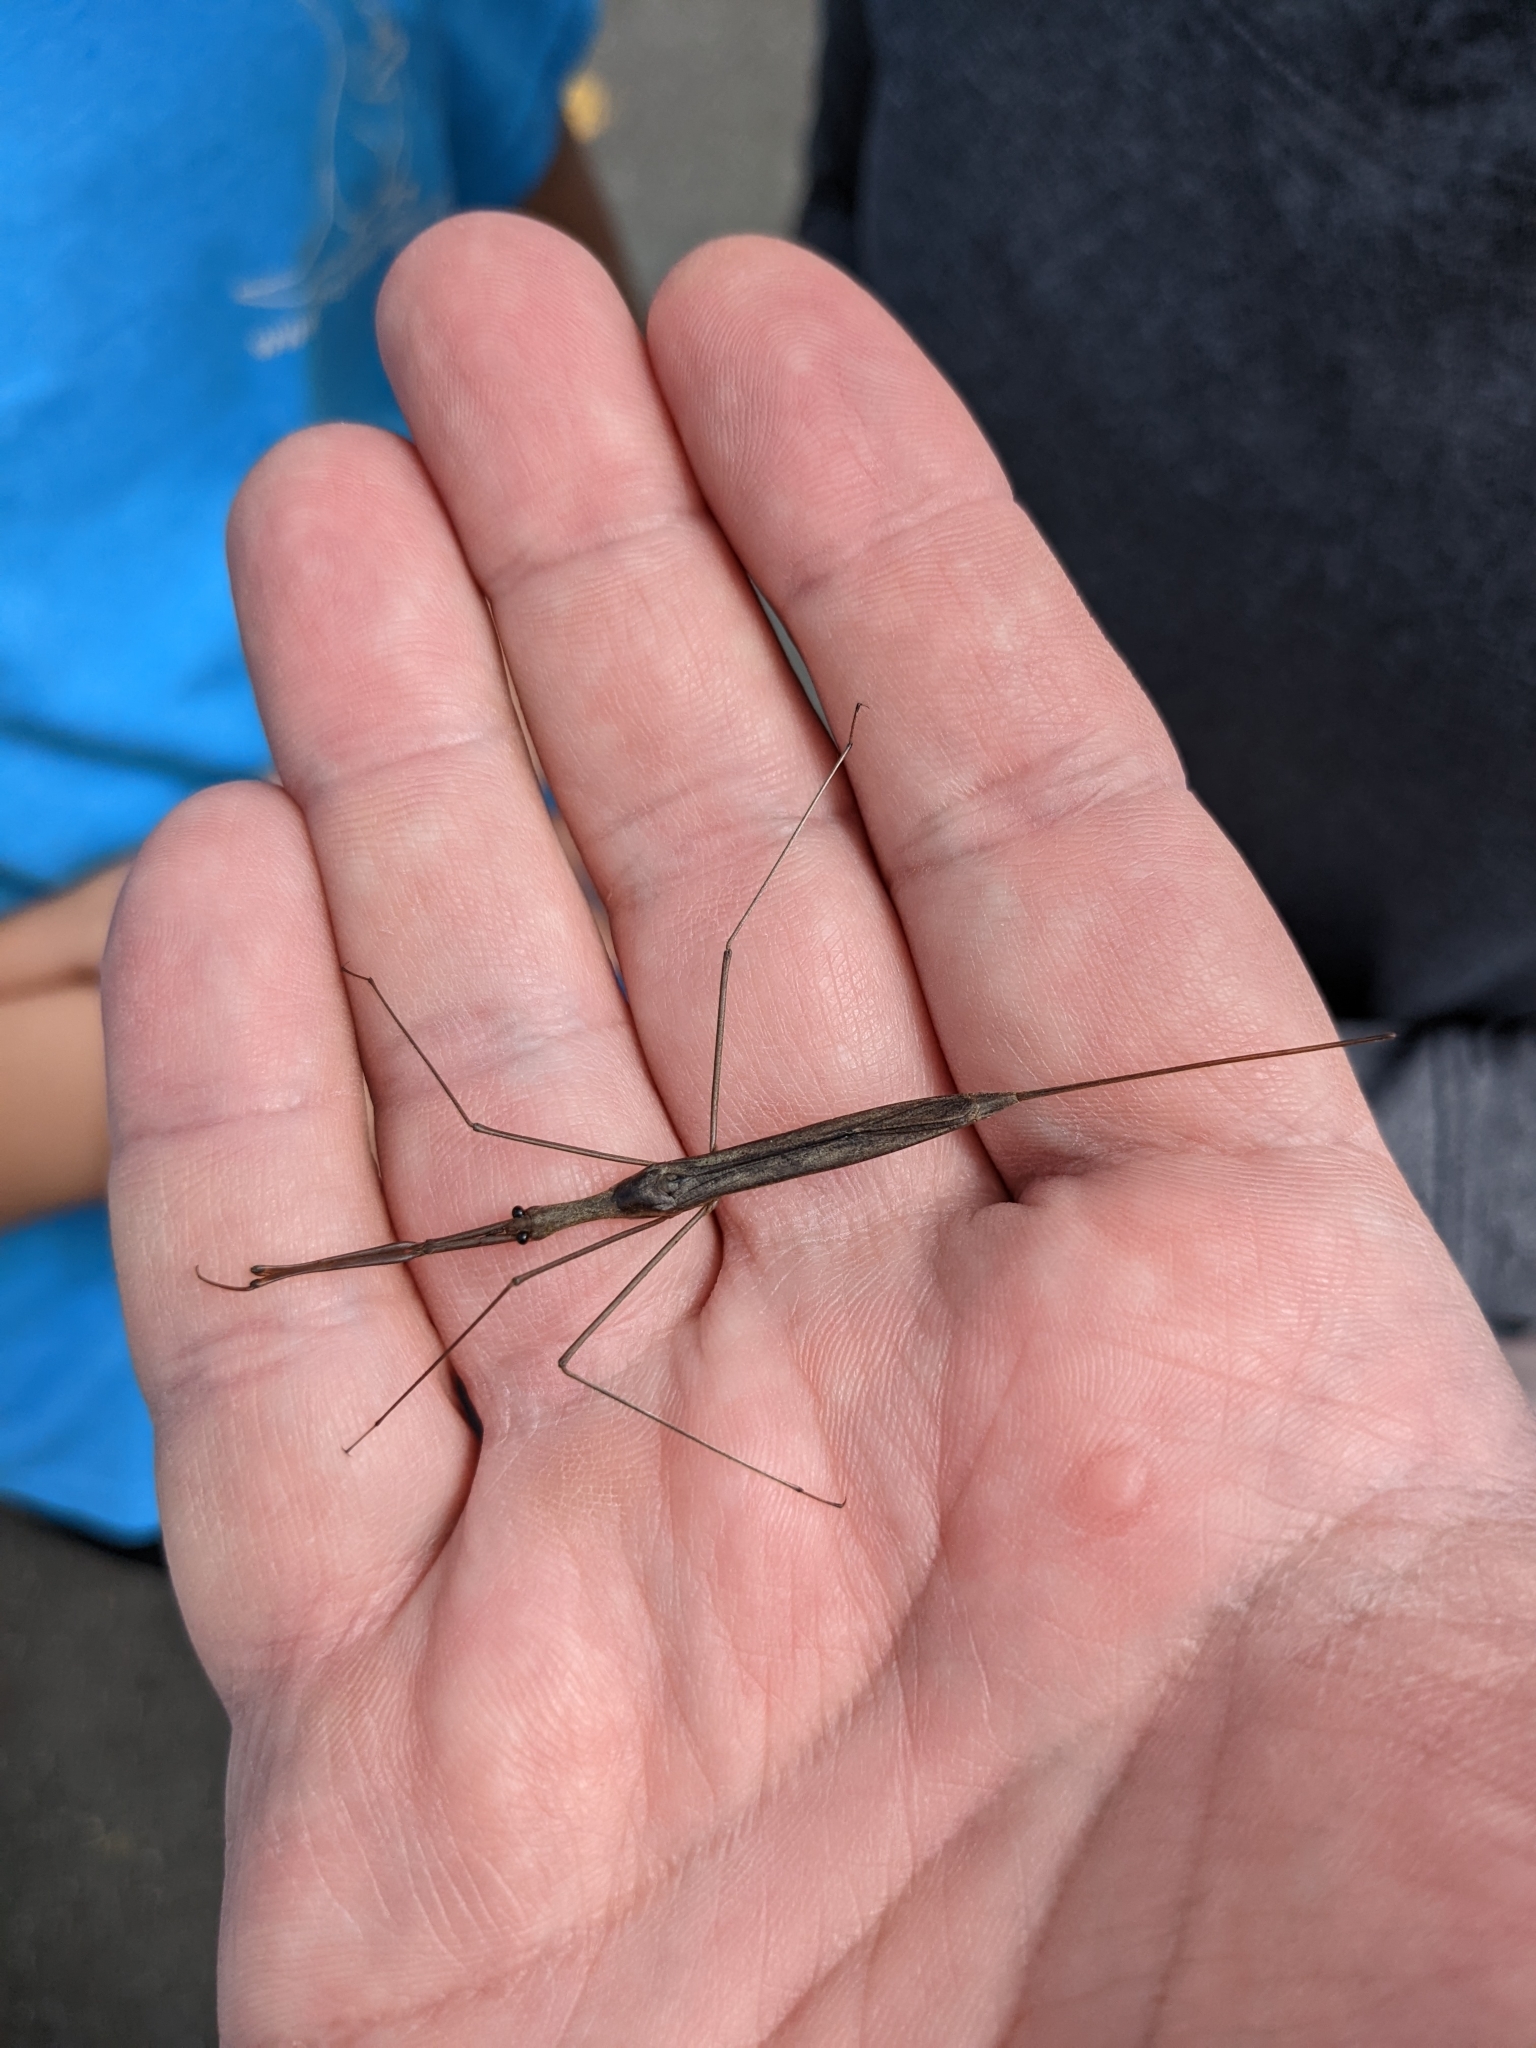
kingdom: Animalia
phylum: Arthropoda
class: Insecta
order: Hemiptera
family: Nepidae
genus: Ranatra
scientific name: Ranatra fusca
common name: Brown waterscorpion
